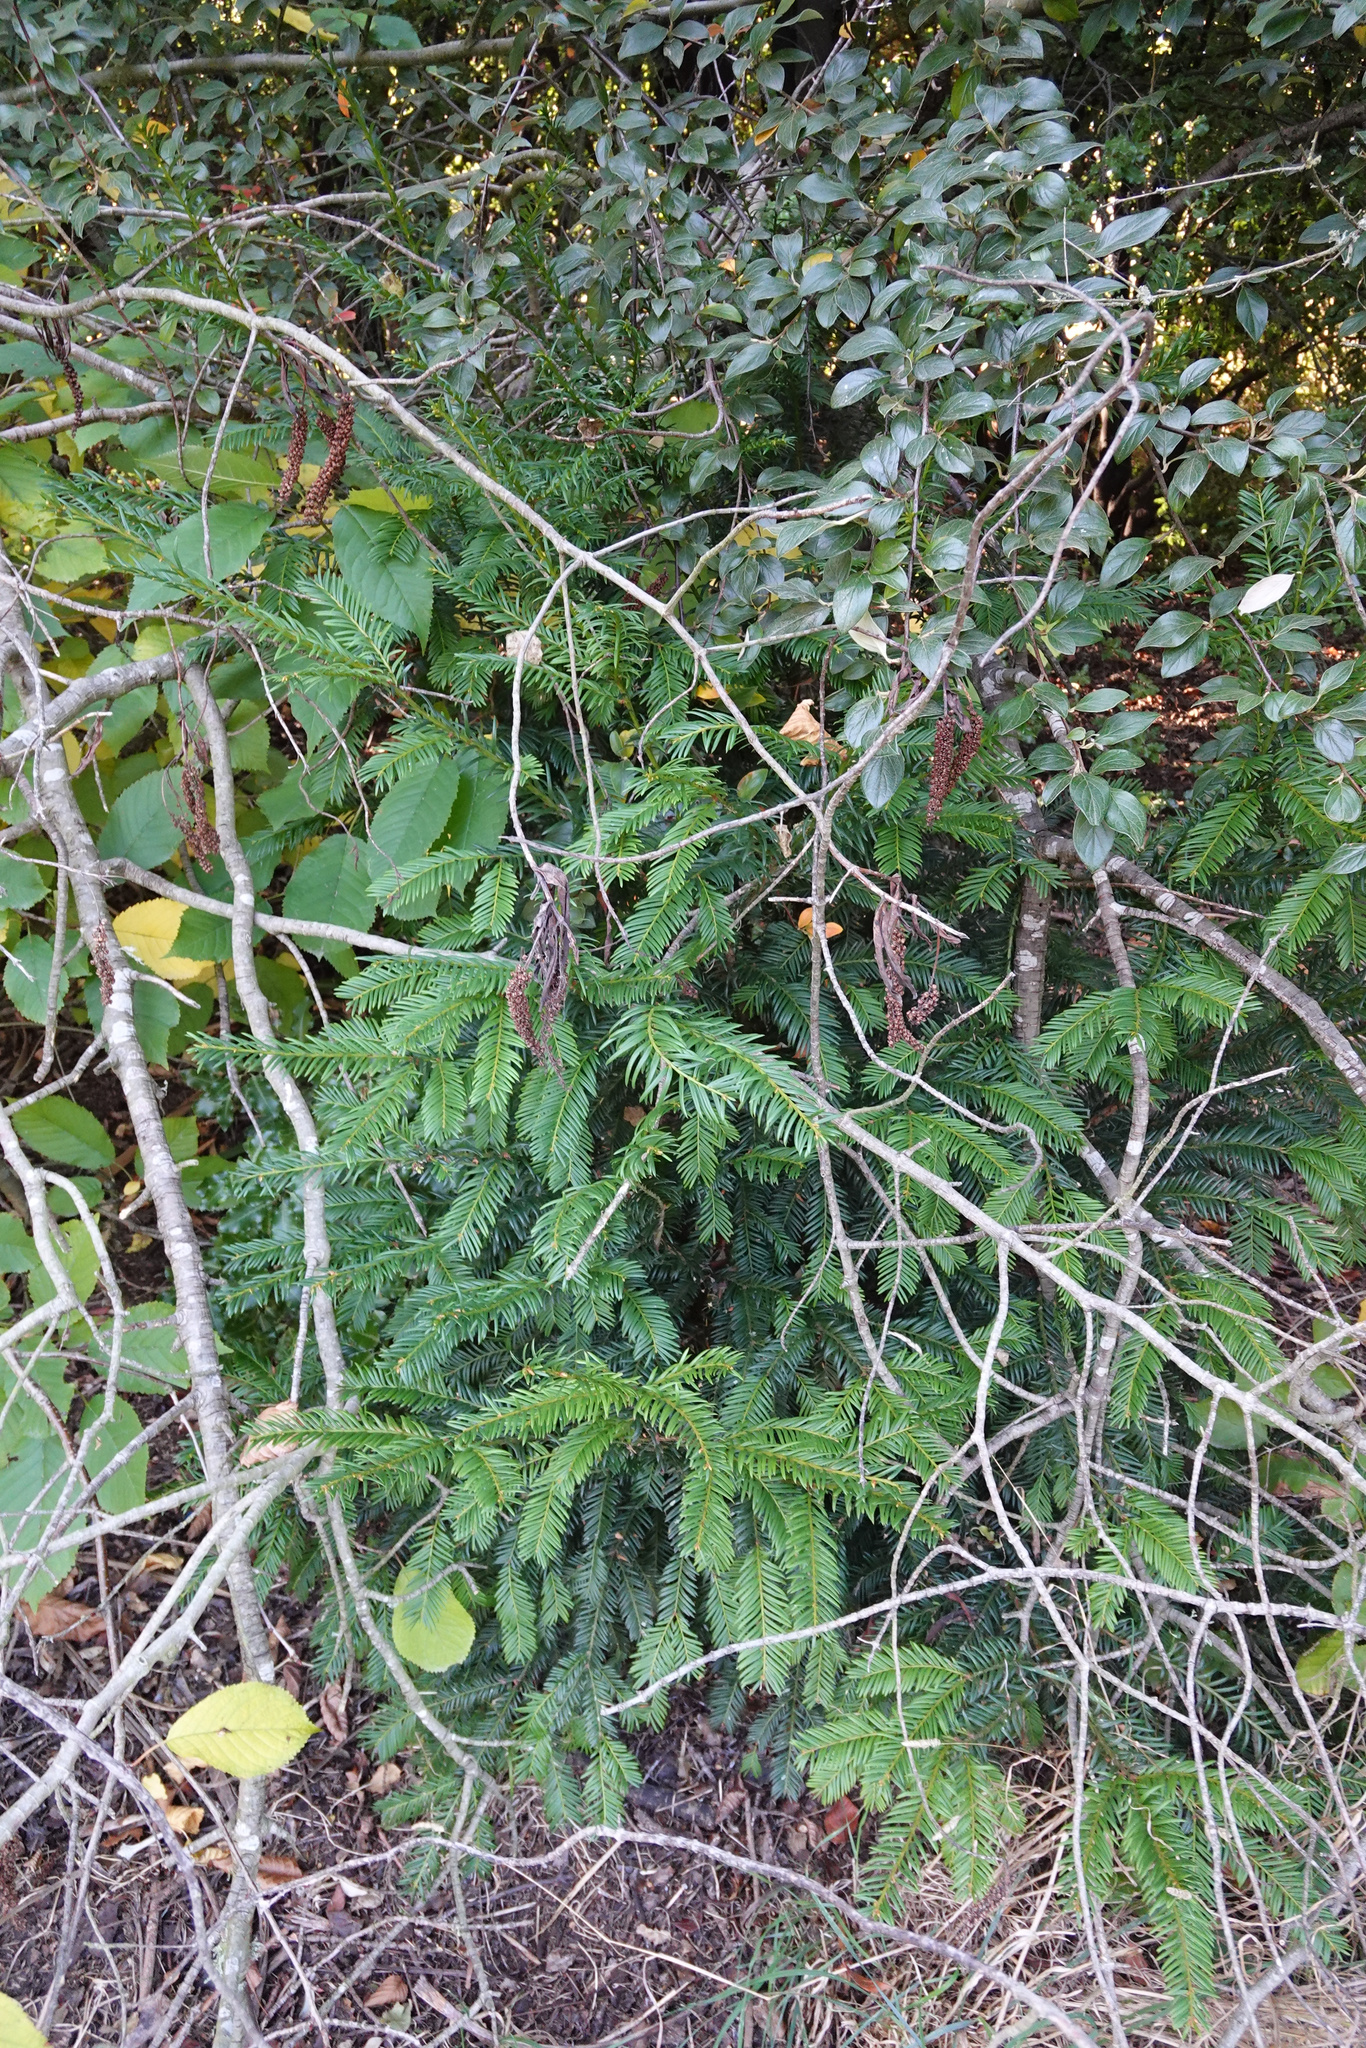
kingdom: Plantae
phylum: Tracheophyta
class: Pinopsida
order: Pinales
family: Taxaceae
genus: Taxus
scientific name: Taxus baccata
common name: Yew
